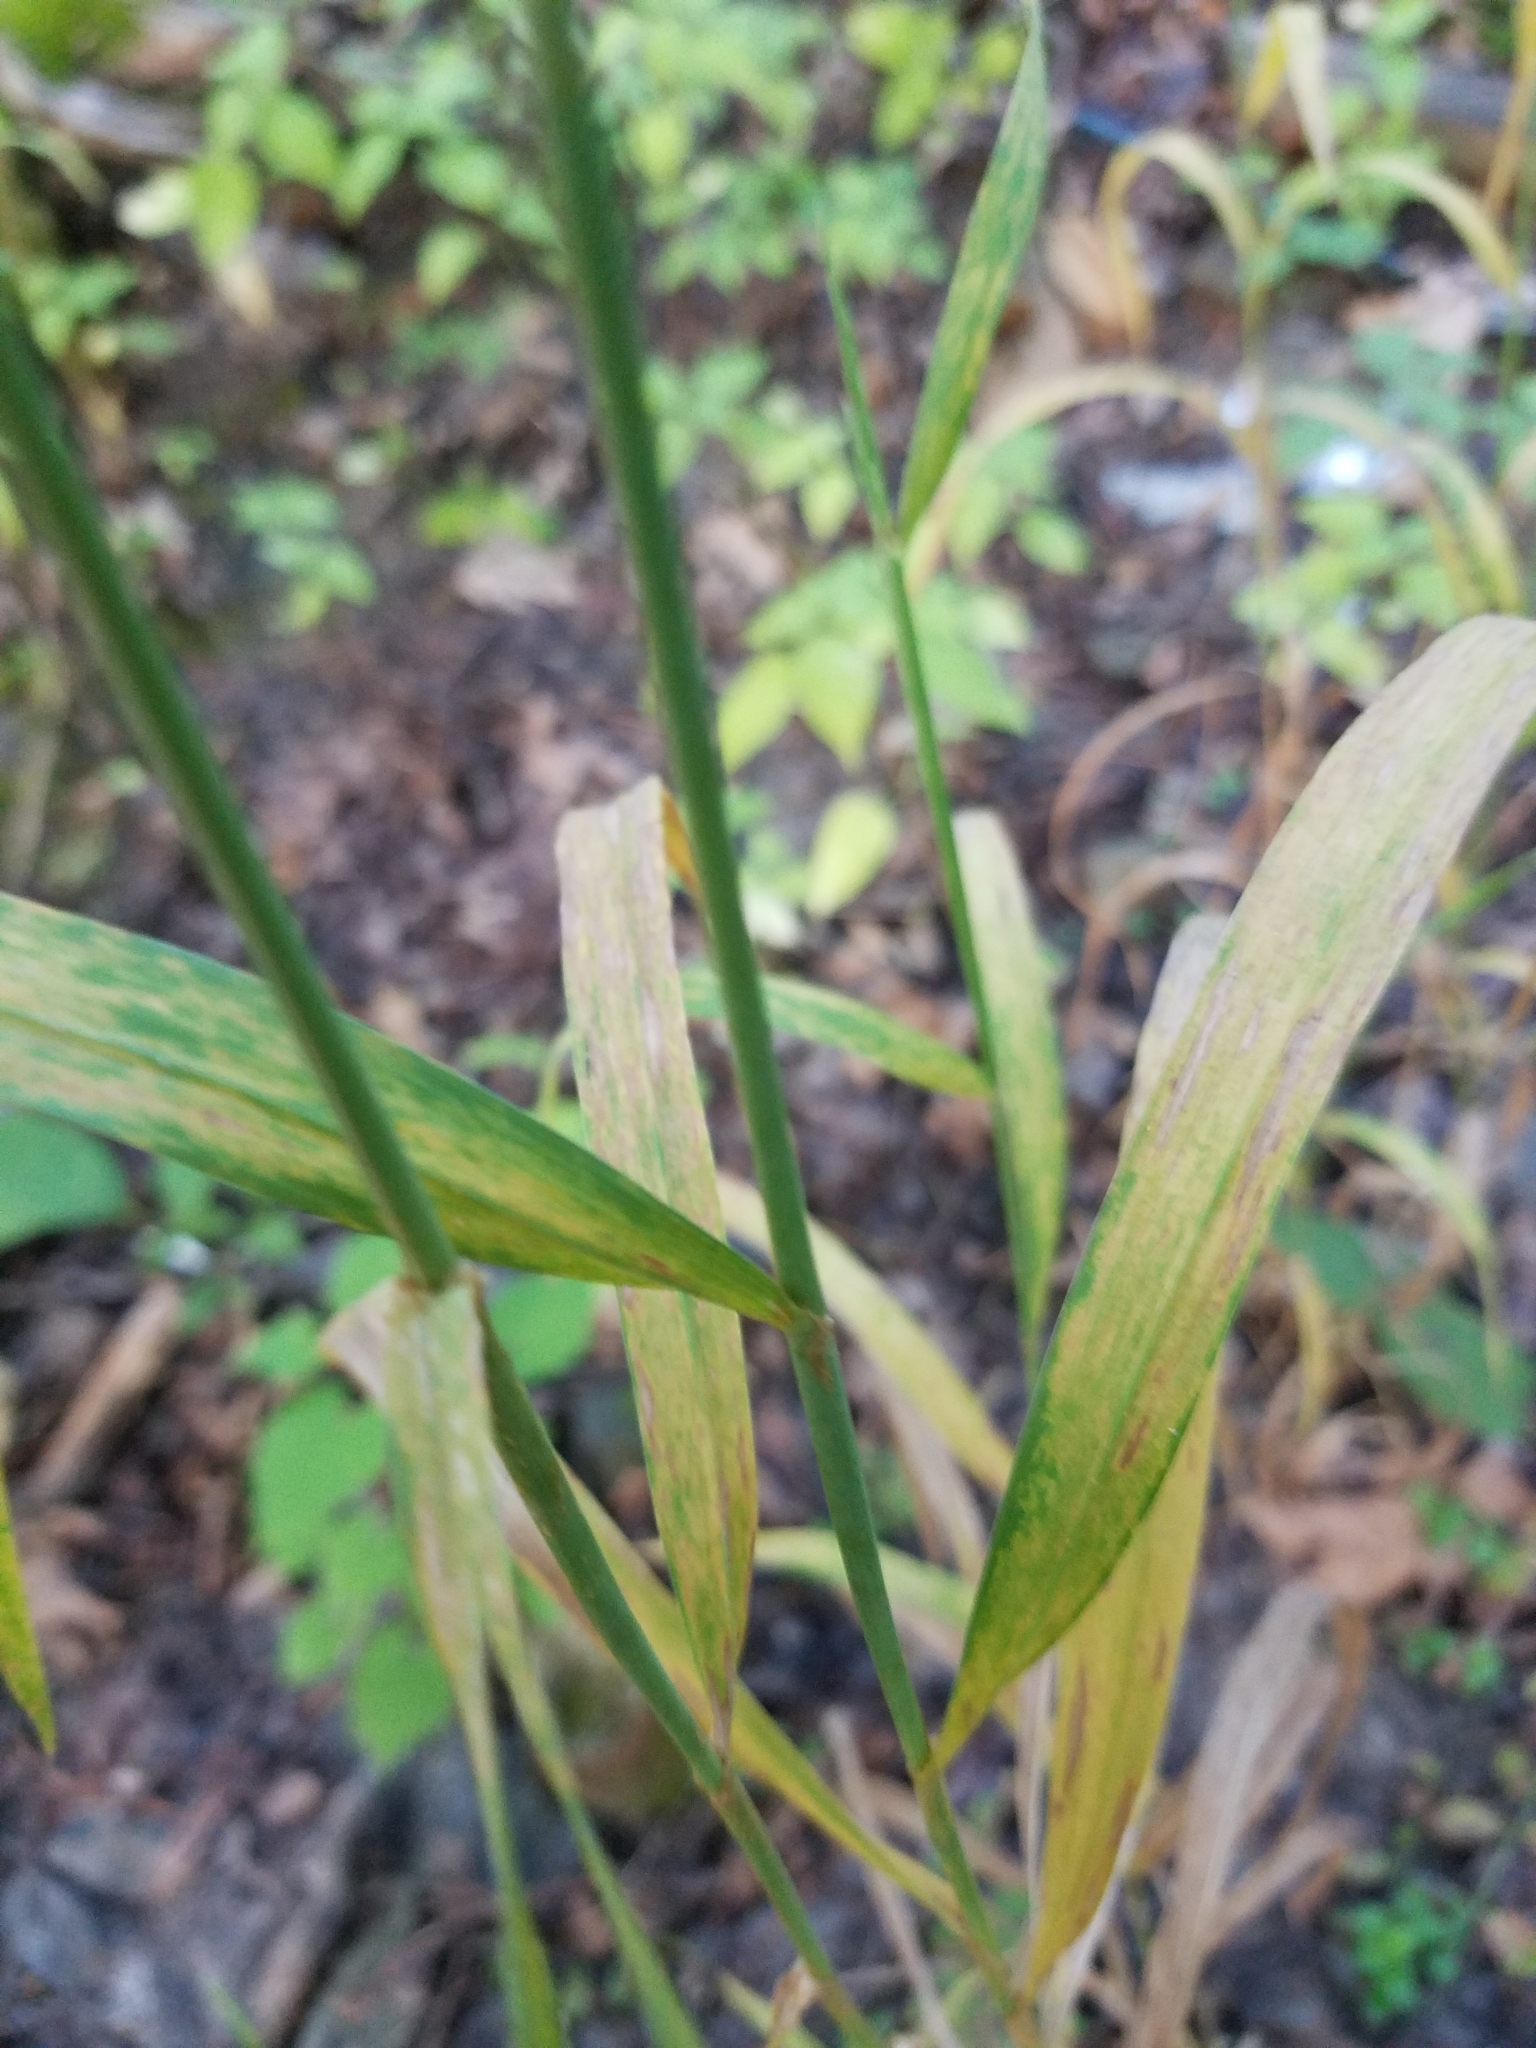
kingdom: Plantae
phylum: Tracheophyta
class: Liliopsida
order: Poales
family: Poaceae
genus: Cinna
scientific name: Cinna arundinacea
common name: Stout woodreed
